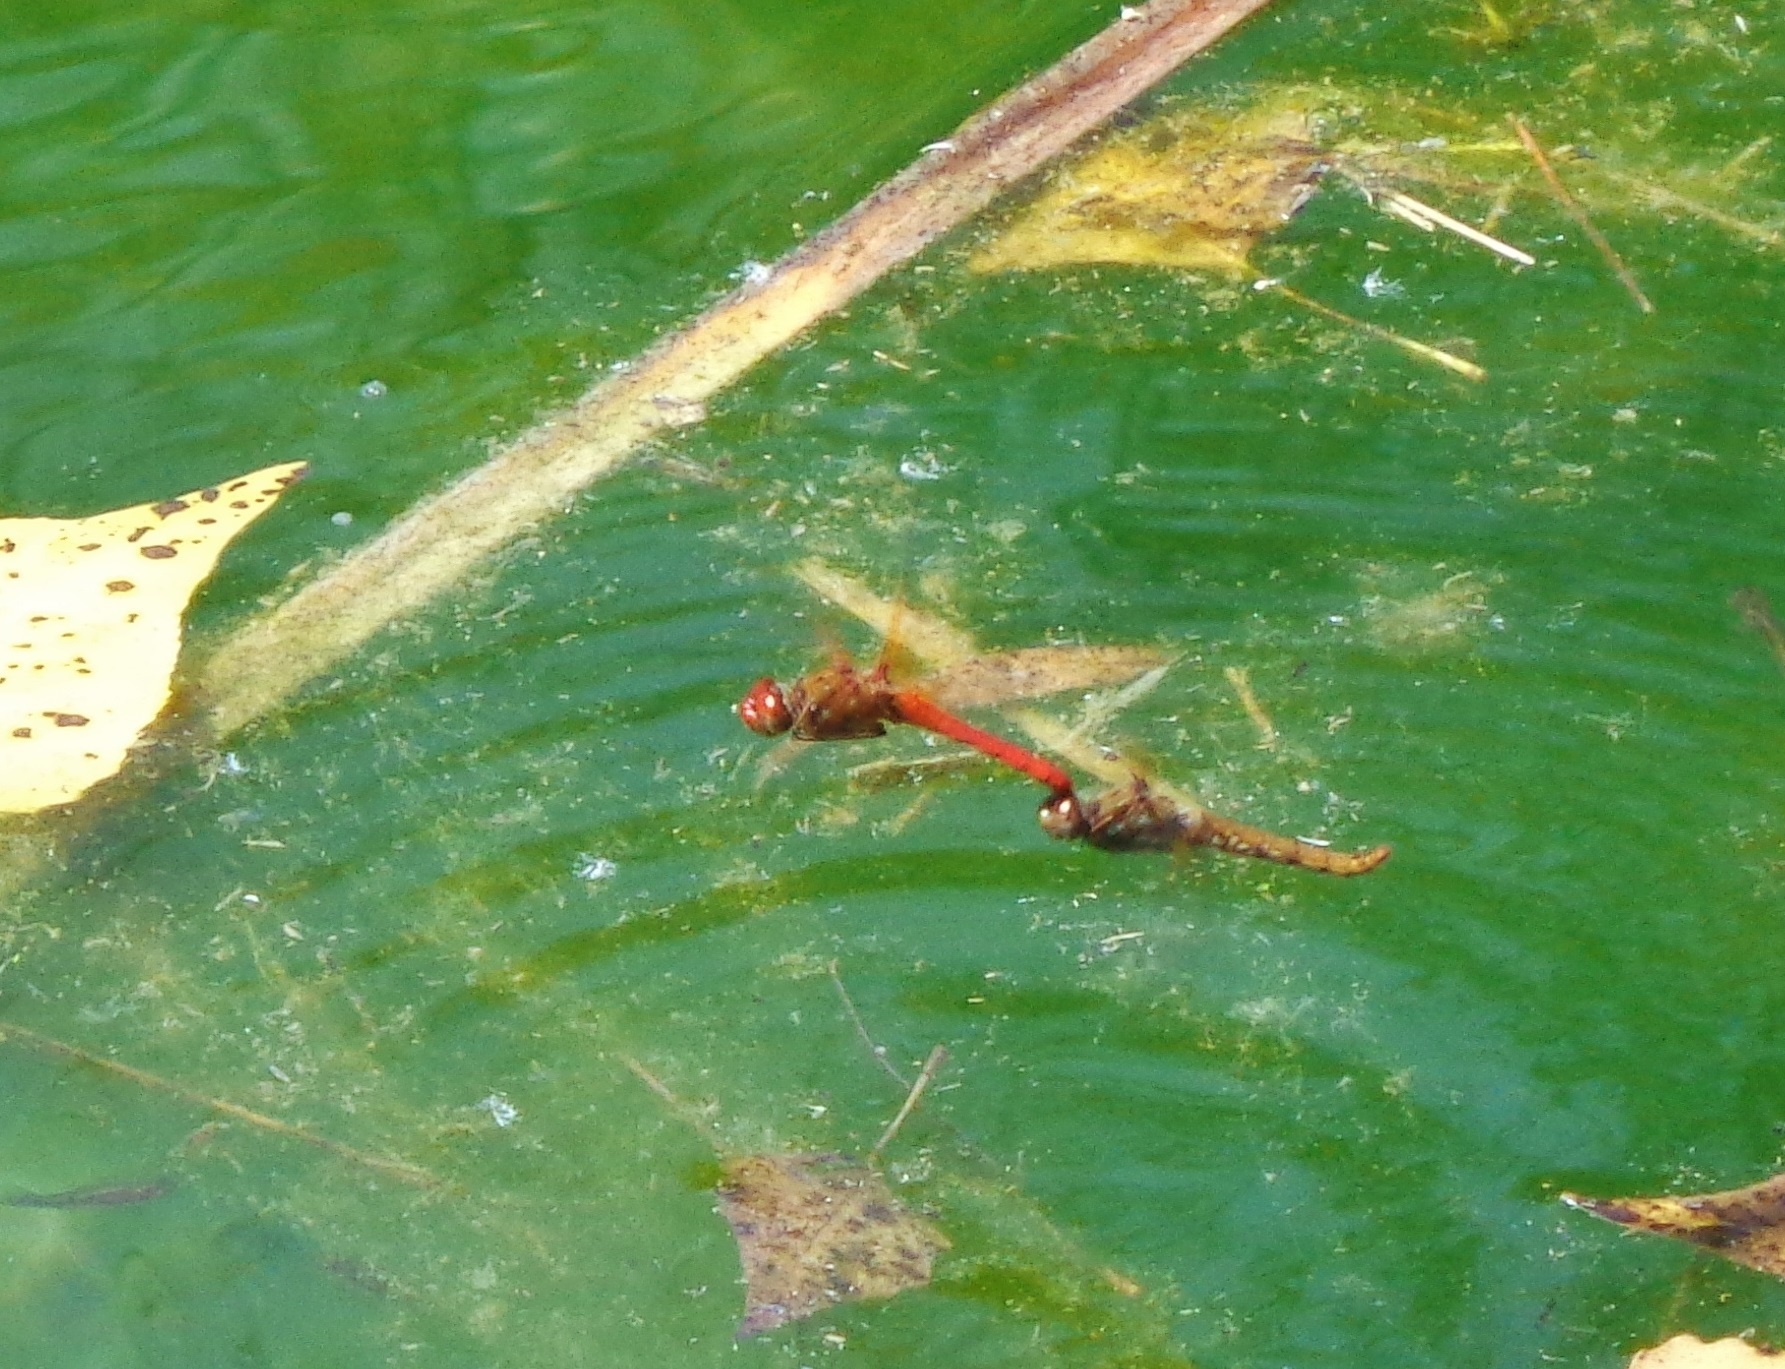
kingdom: Animalia
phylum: Arthropoda
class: Insecta
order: Odonata
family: Libellulidae
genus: Sympetrum
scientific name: Sympetrum illotum
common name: Cardinal meadowhawk
